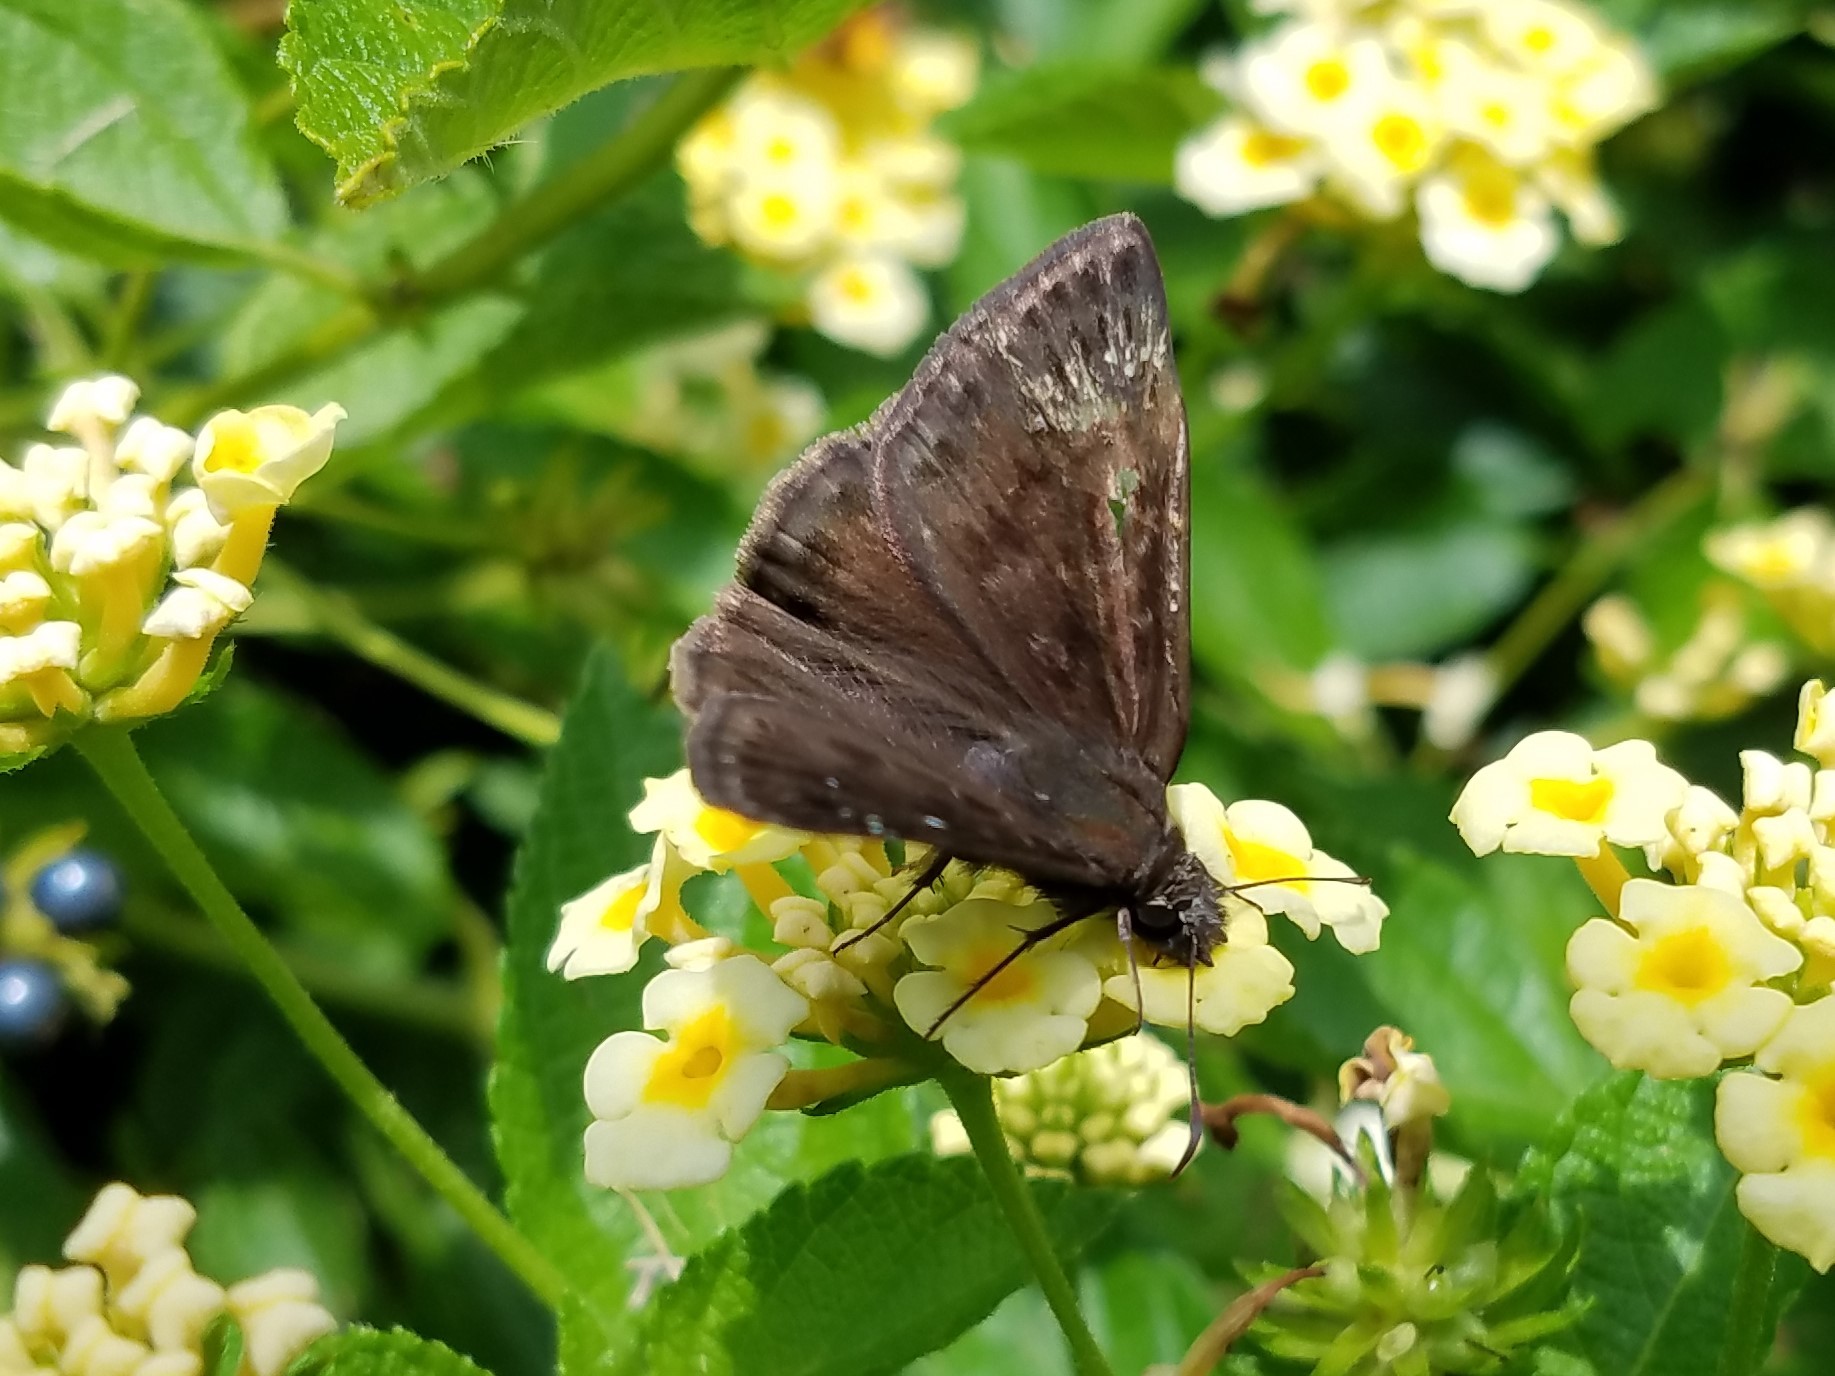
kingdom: Animalia
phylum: Arthropoda
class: Insecta
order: Lepidoptera
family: Hesperiidae
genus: Erynnis
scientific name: Erynnis horatius
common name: Horace's duskywing
